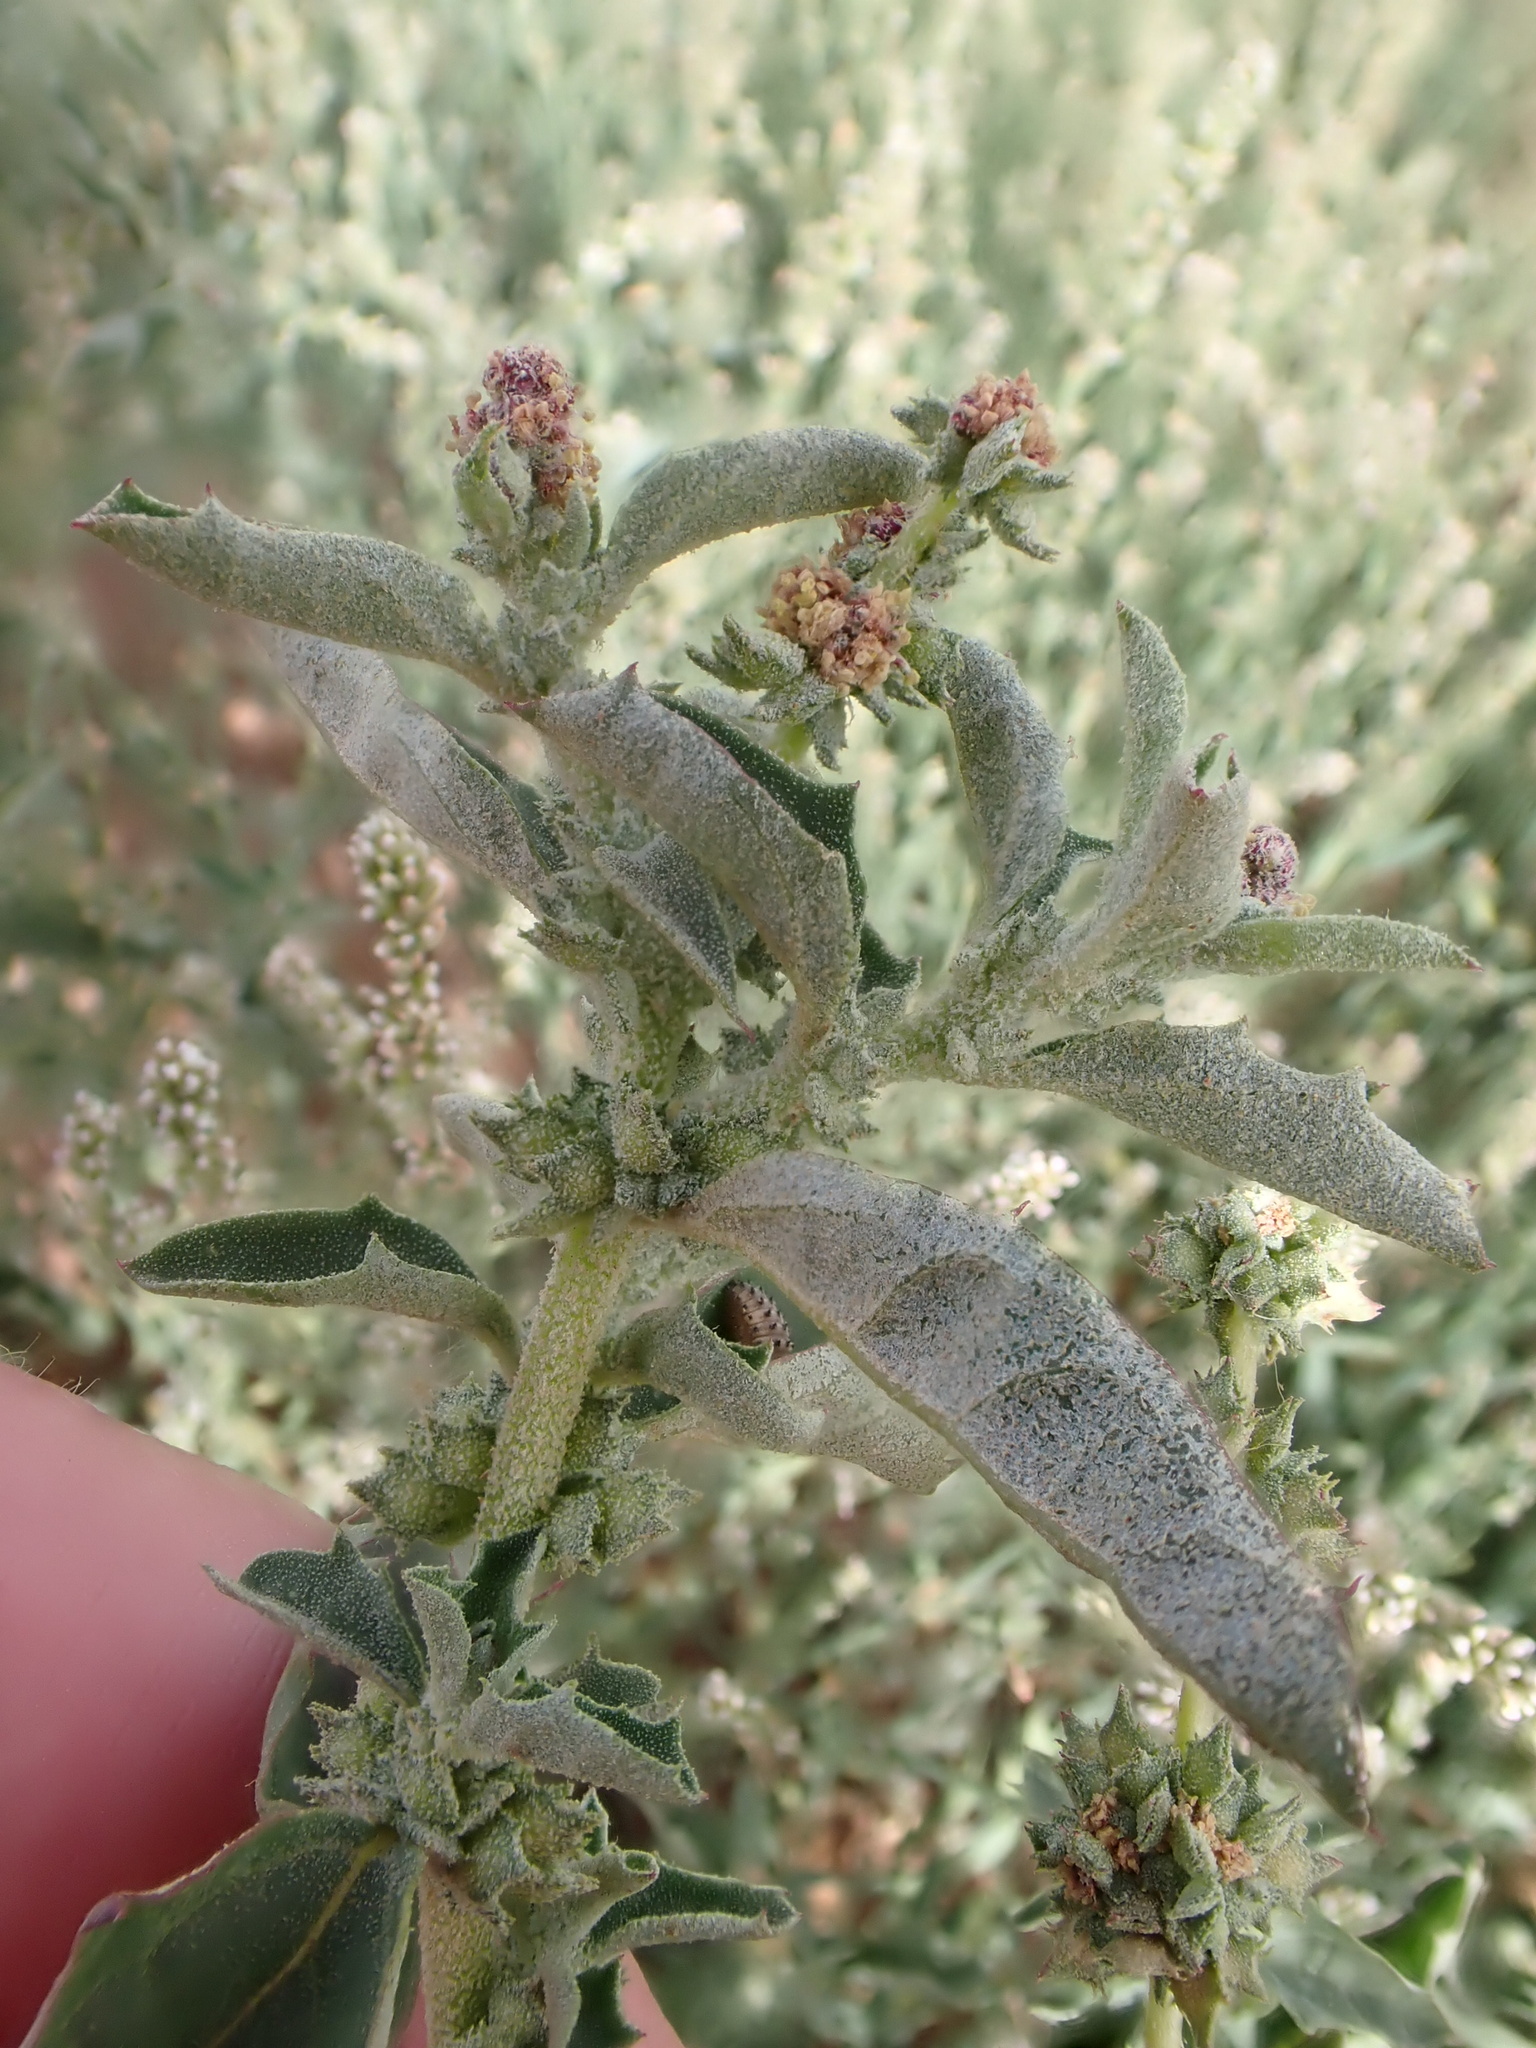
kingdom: Plantae
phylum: Tracheophyta
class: Magnoliopsida
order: Caryophyllales
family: Amaranthaceae
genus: Atriplex
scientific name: Atriplex suberecta
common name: Australian orache
